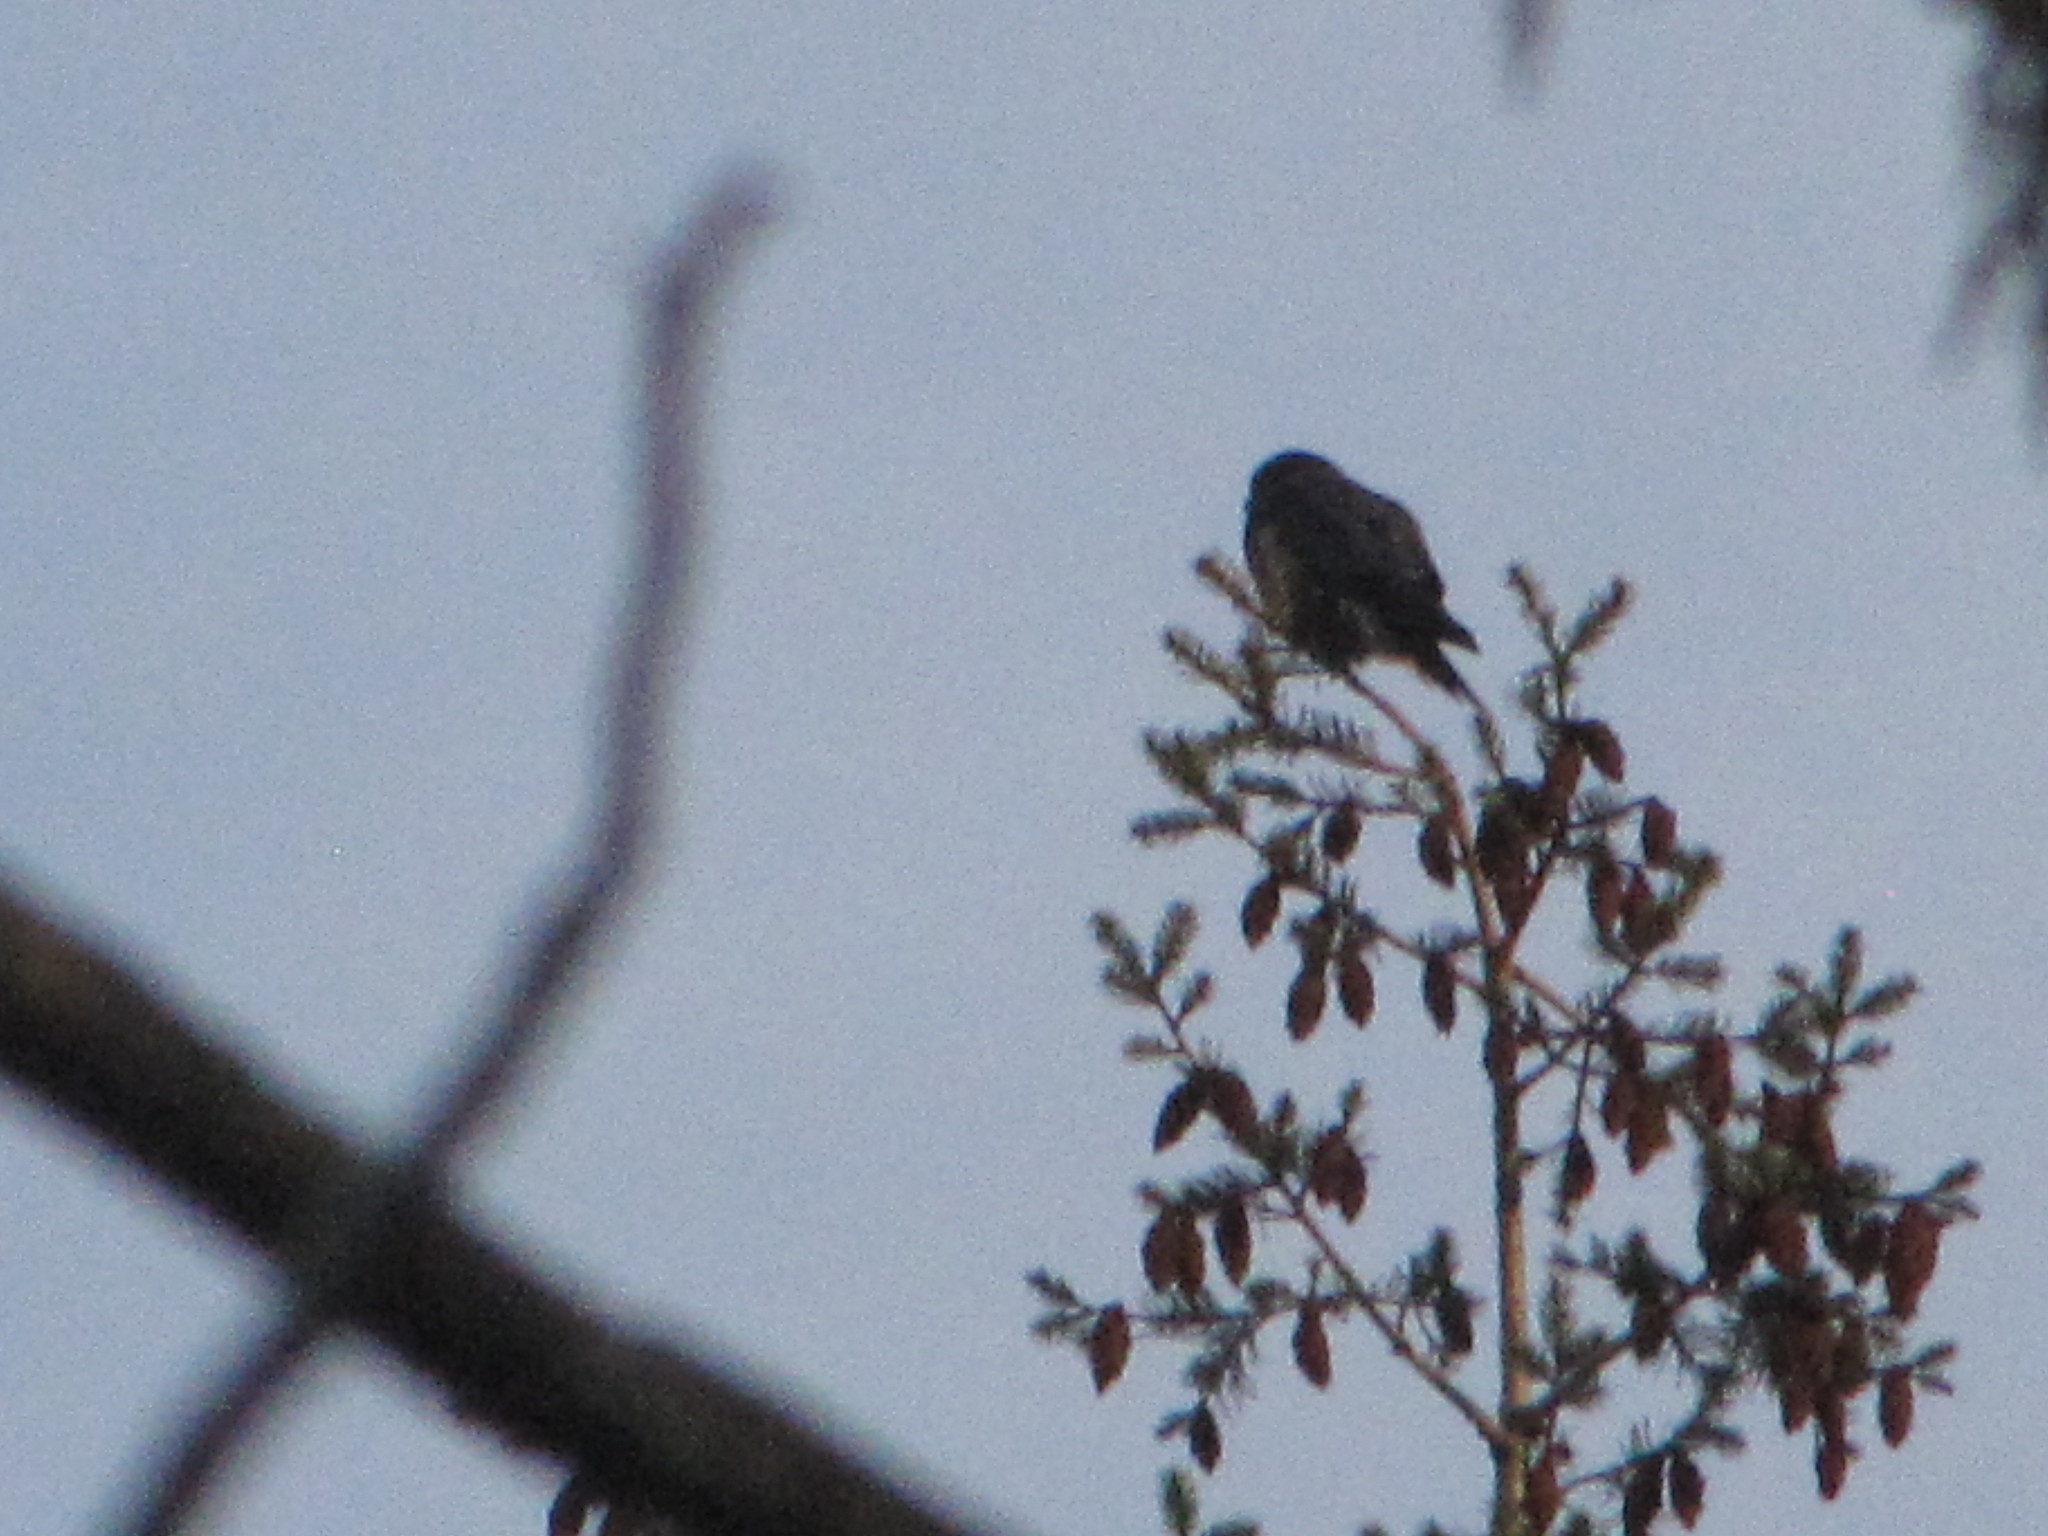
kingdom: Animalia
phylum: Chordata
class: Aves
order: Falconiformes
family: Falconidae
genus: Falco
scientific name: Falco columbarius
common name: Merlin
